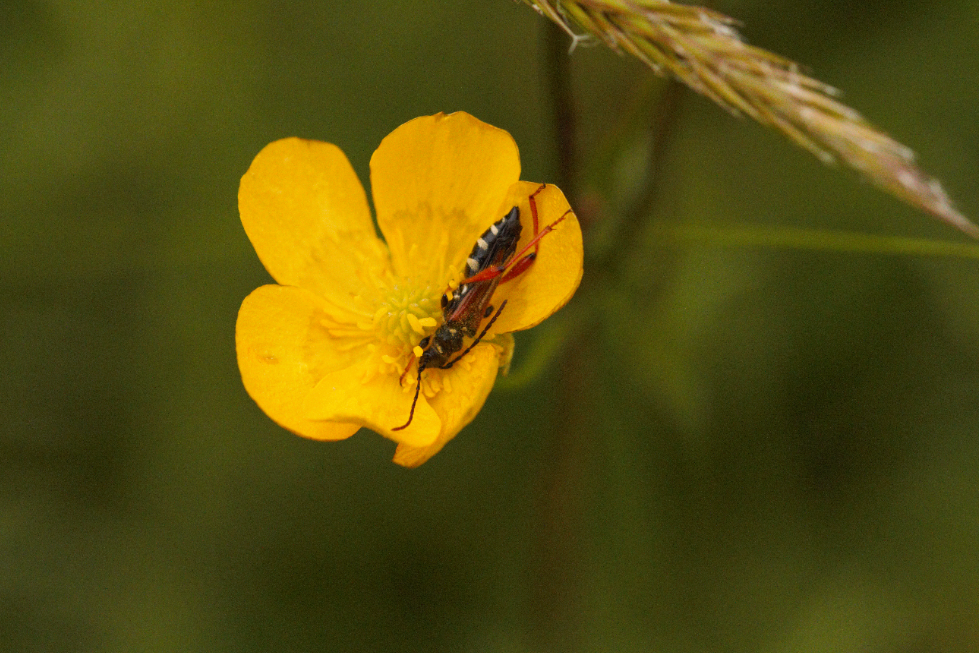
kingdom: Animalia
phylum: Arthropoda
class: Insecta
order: Coleoptera
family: Cerambycidae
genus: Stenopterus
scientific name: Stenopterus rufus
